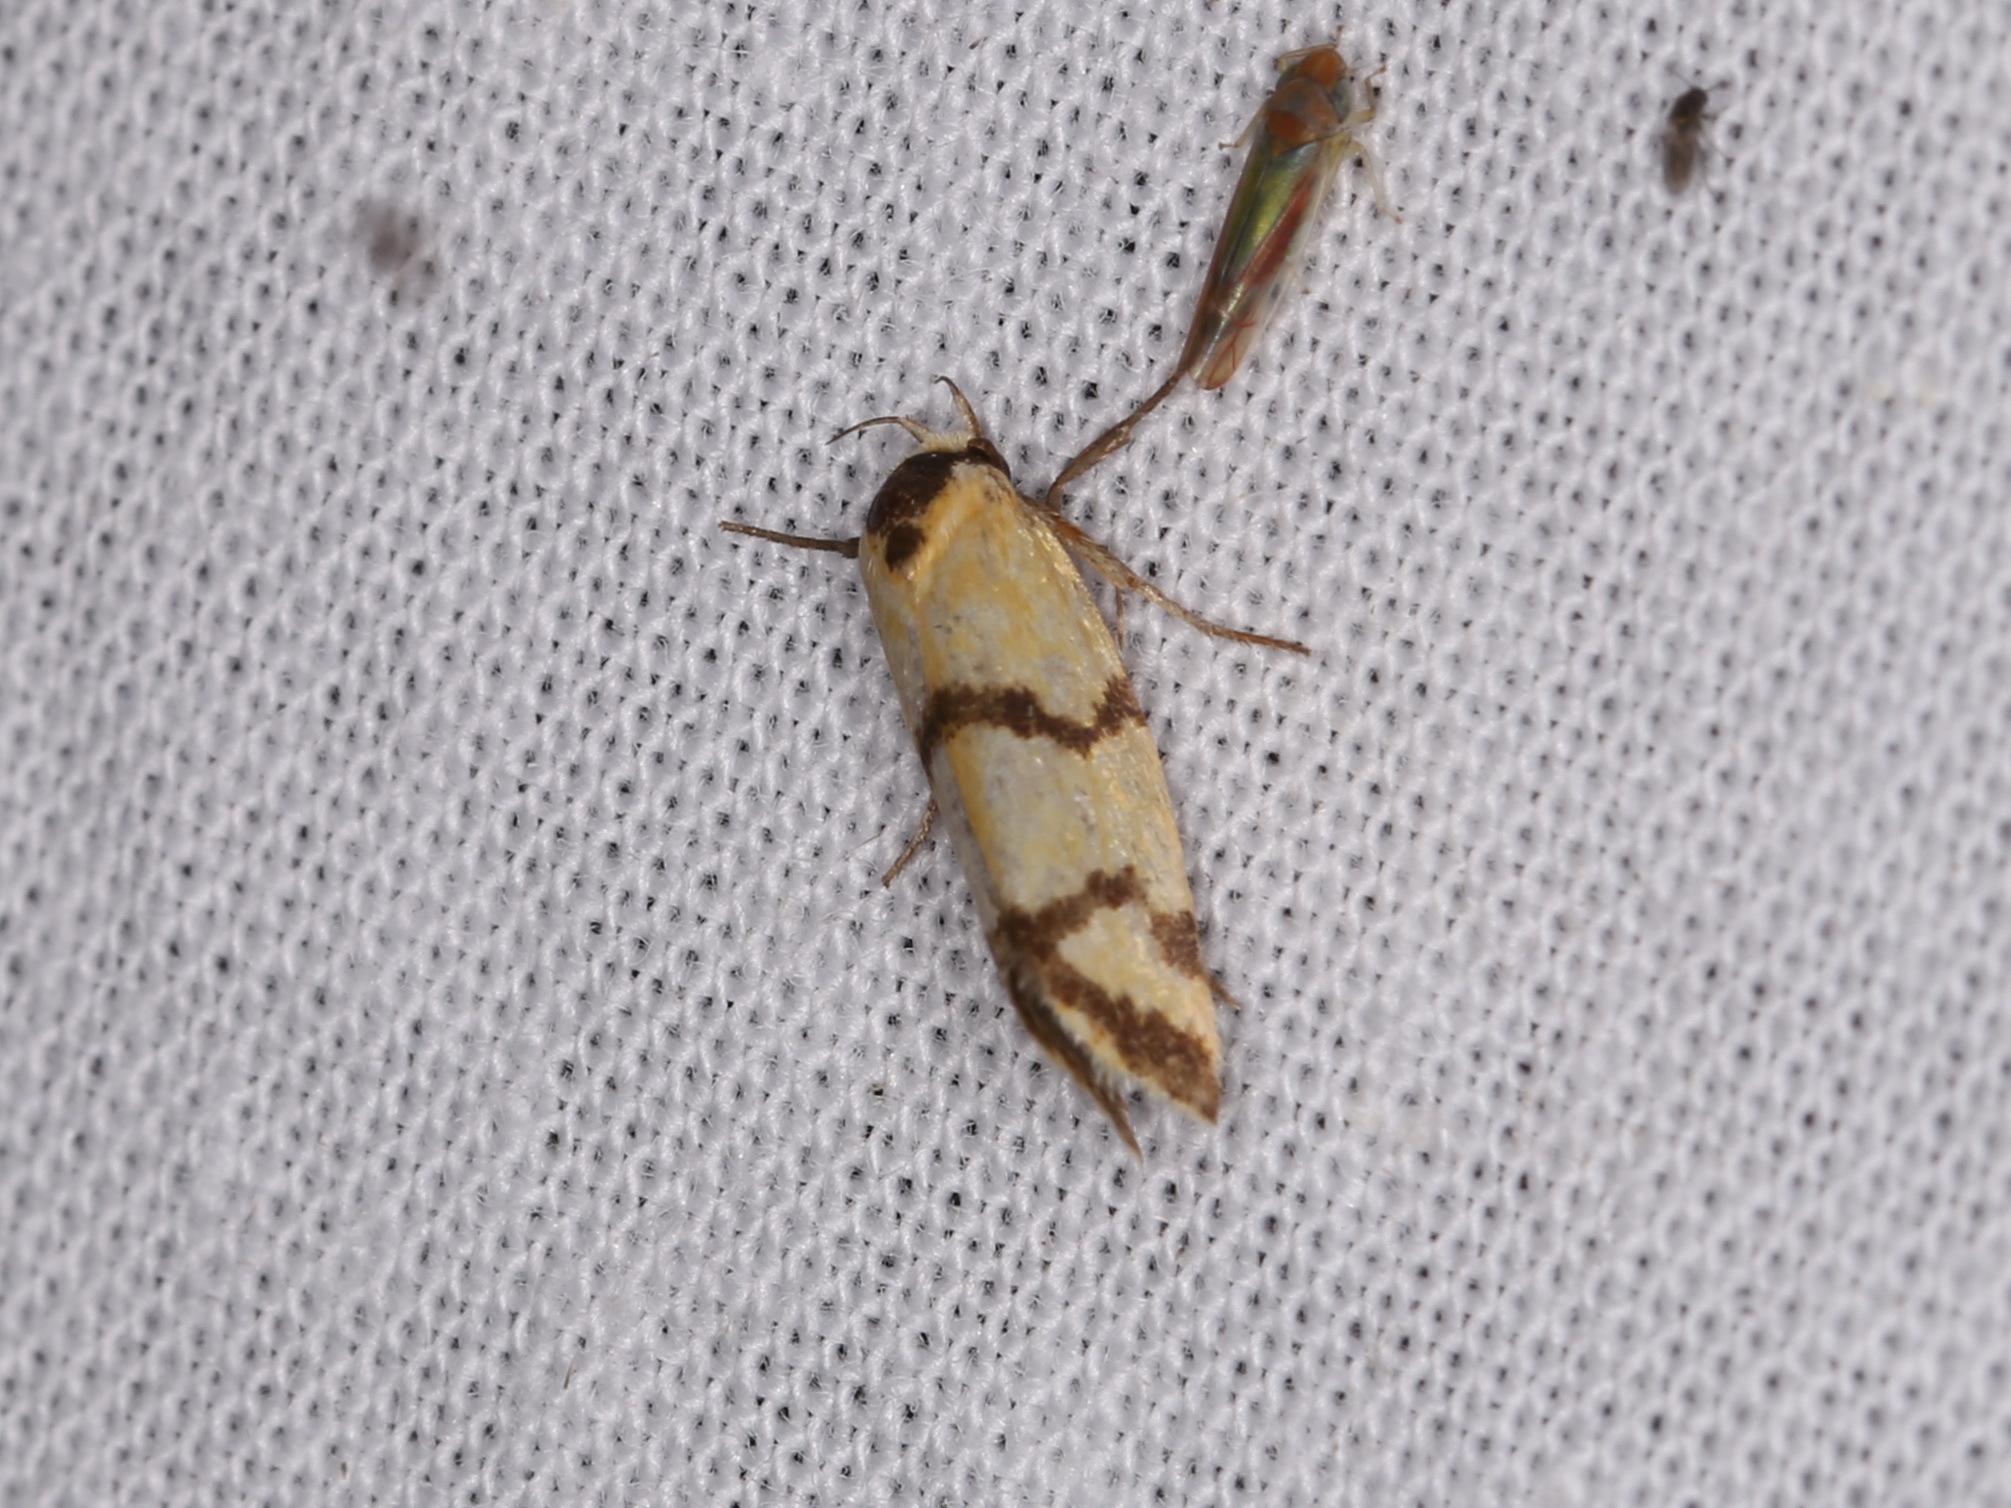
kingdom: Animalia
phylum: Arthropoda
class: Insecta
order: Lepidoptera
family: Oecophoridae
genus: Tanyzancla
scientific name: Tanyzancla amphitoxa
